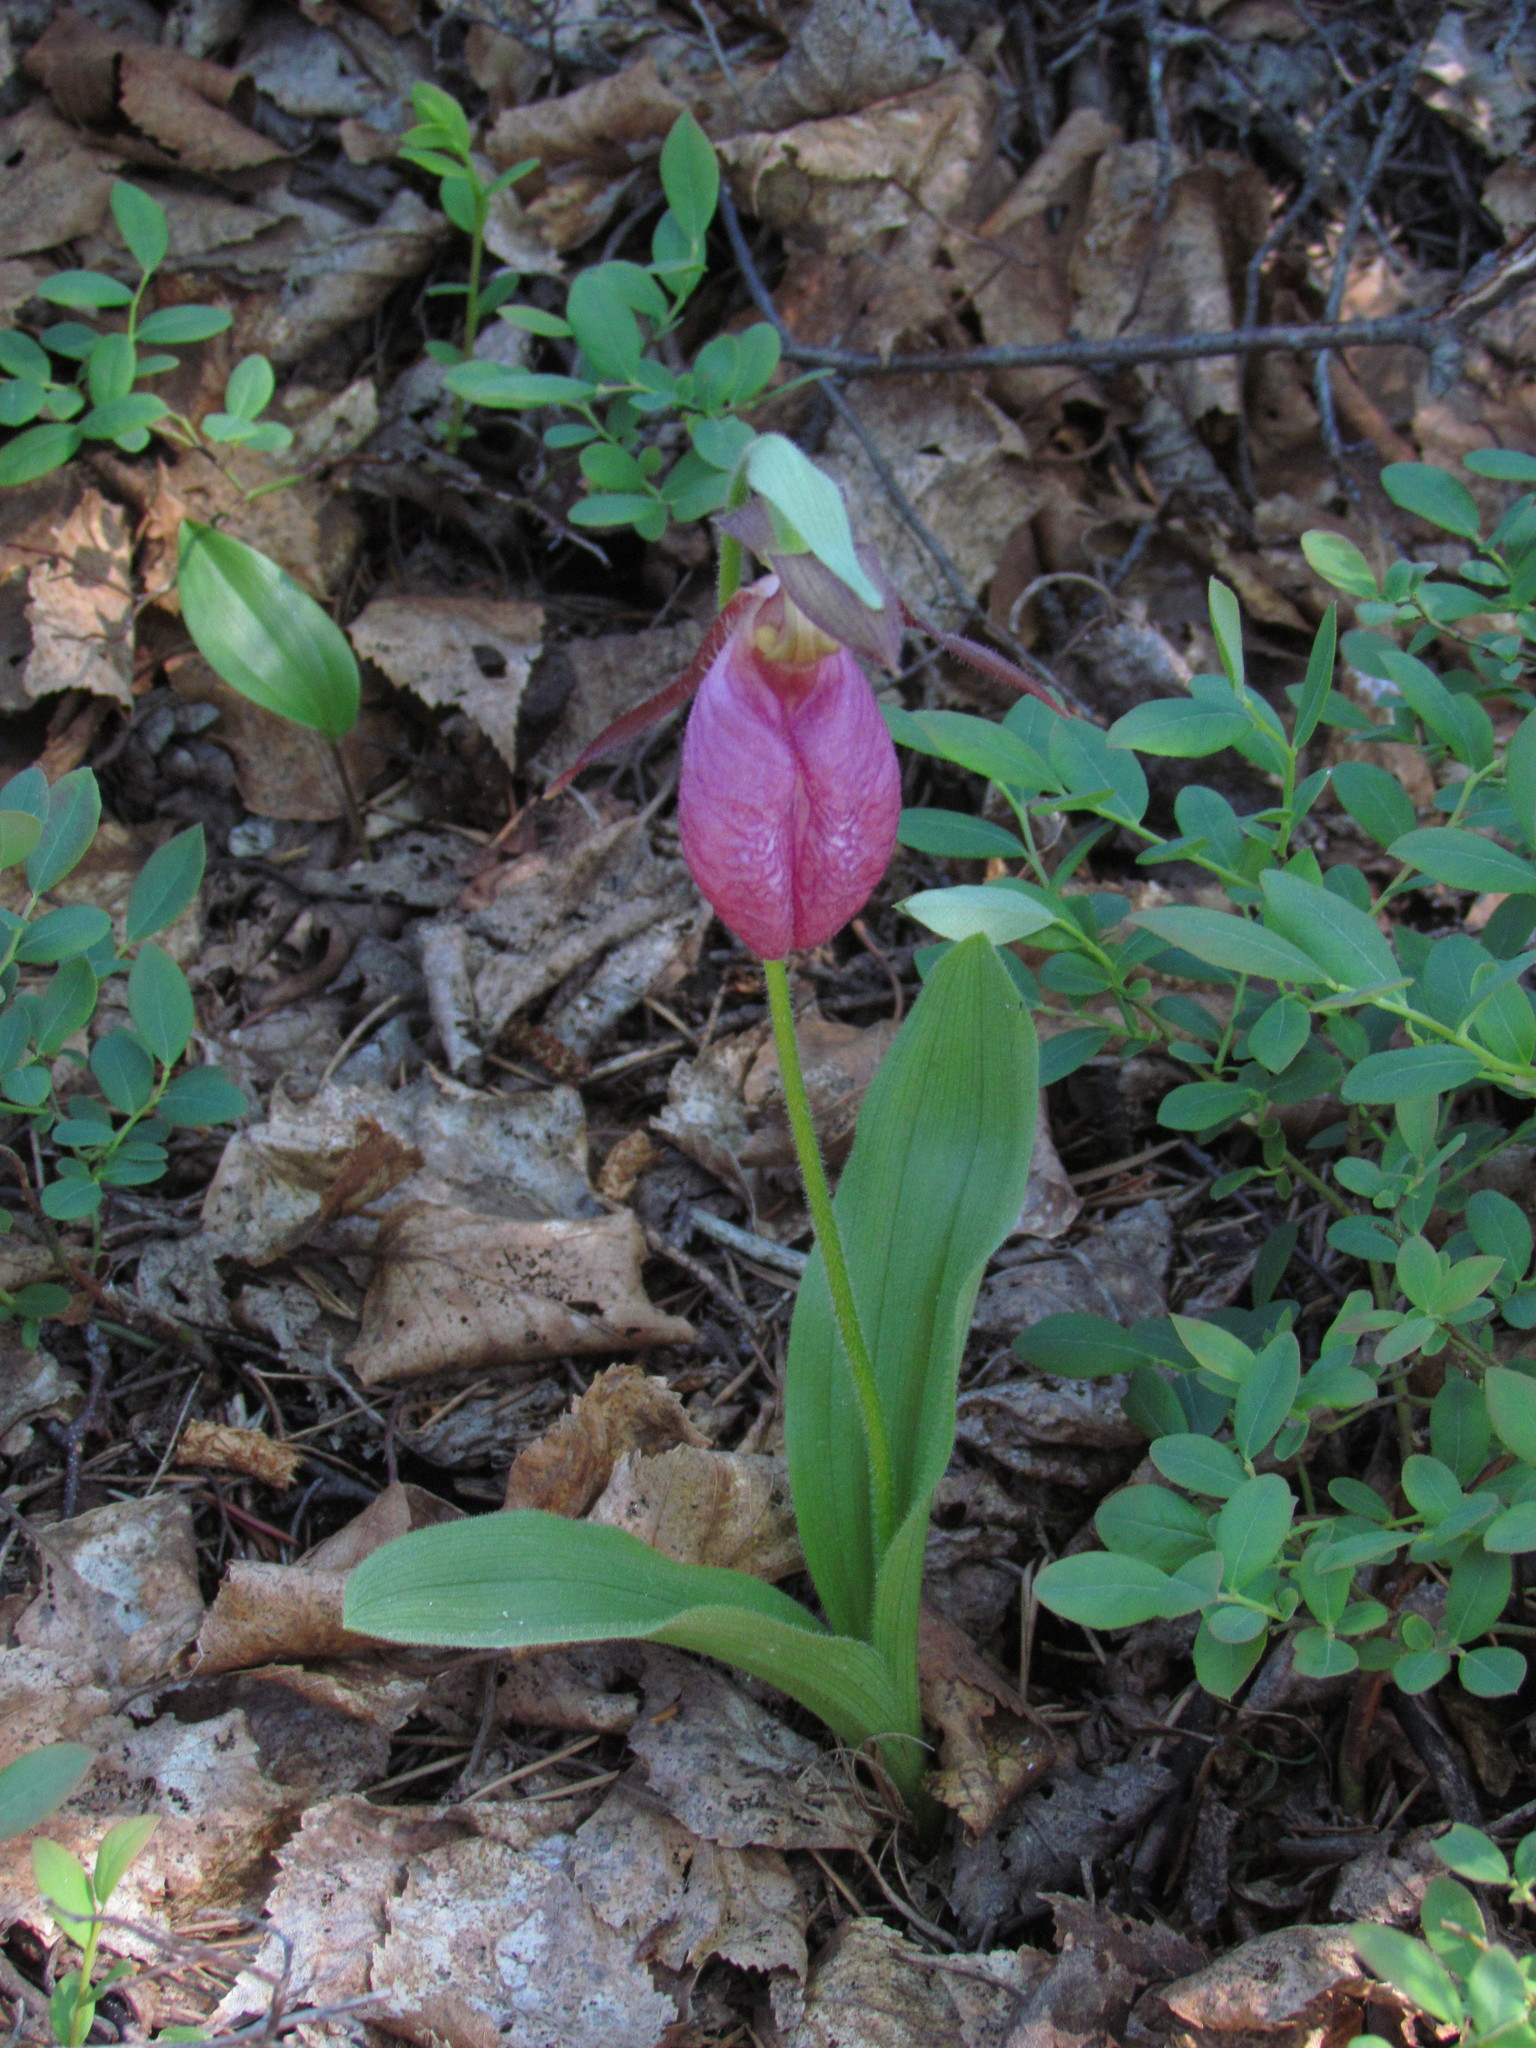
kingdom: Plantae
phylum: Tracheophyta
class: Liliopsida
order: Asparagales
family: Orchidaceae
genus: Cypripedium
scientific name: Cypripedium acaule
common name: Pink lady's-slipper
